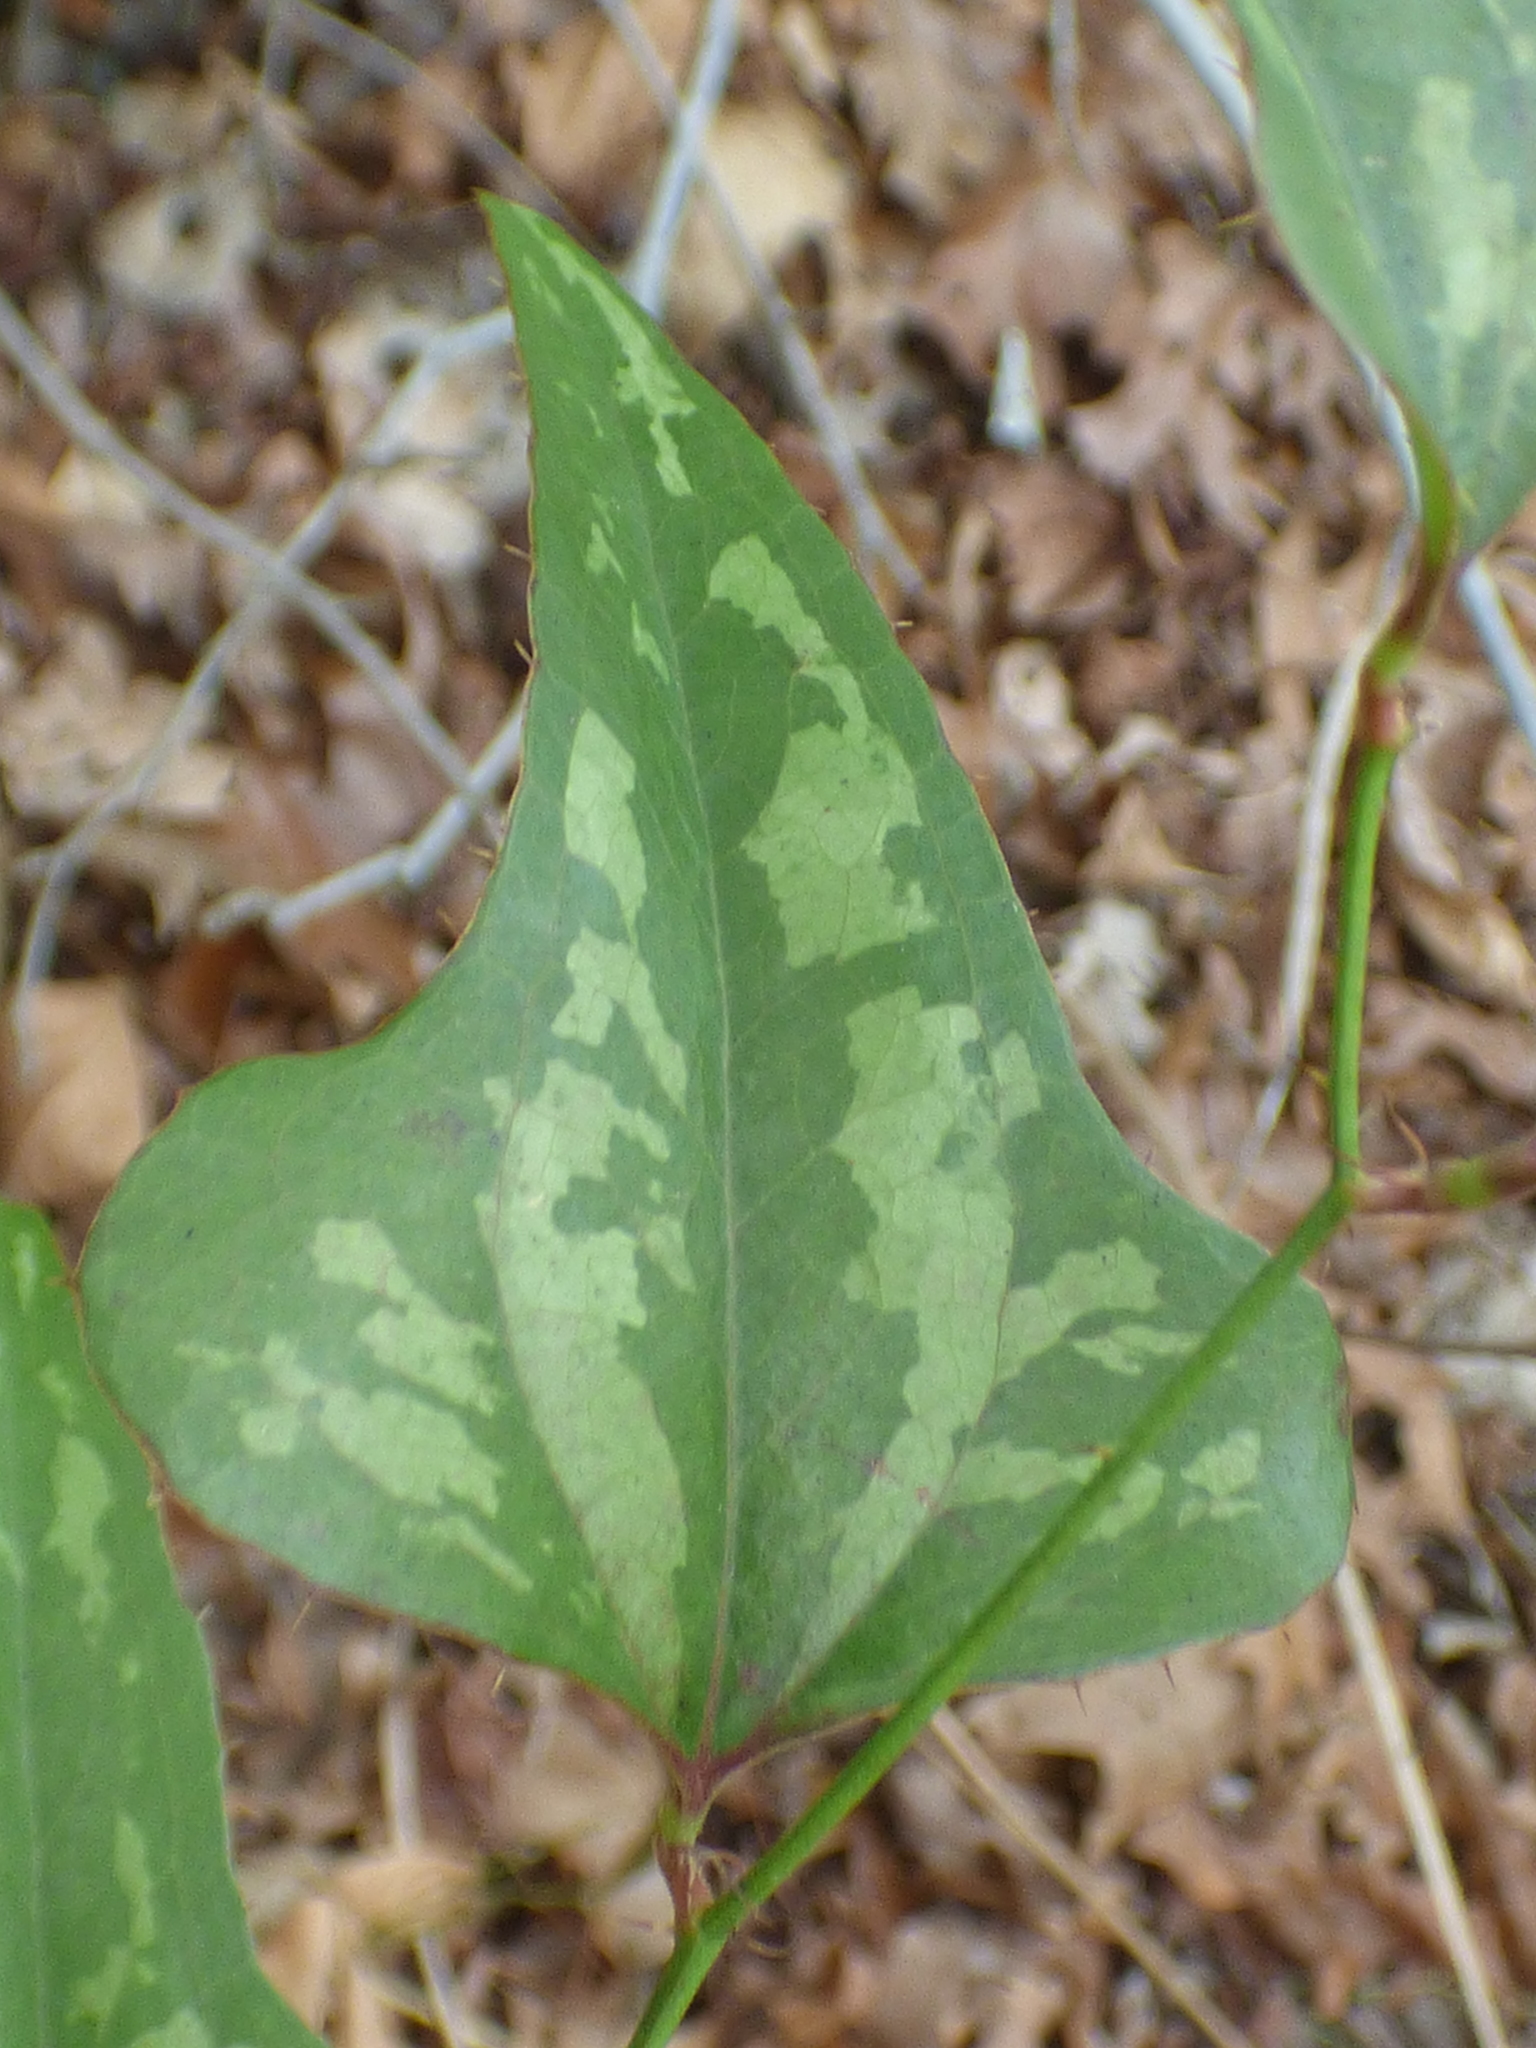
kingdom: Plantae
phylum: Tracheophyta
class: Liliopsida
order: Liliales
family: Smilacaceae
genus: Smilax
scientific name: Smilax bona-nox
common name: Catbrier
